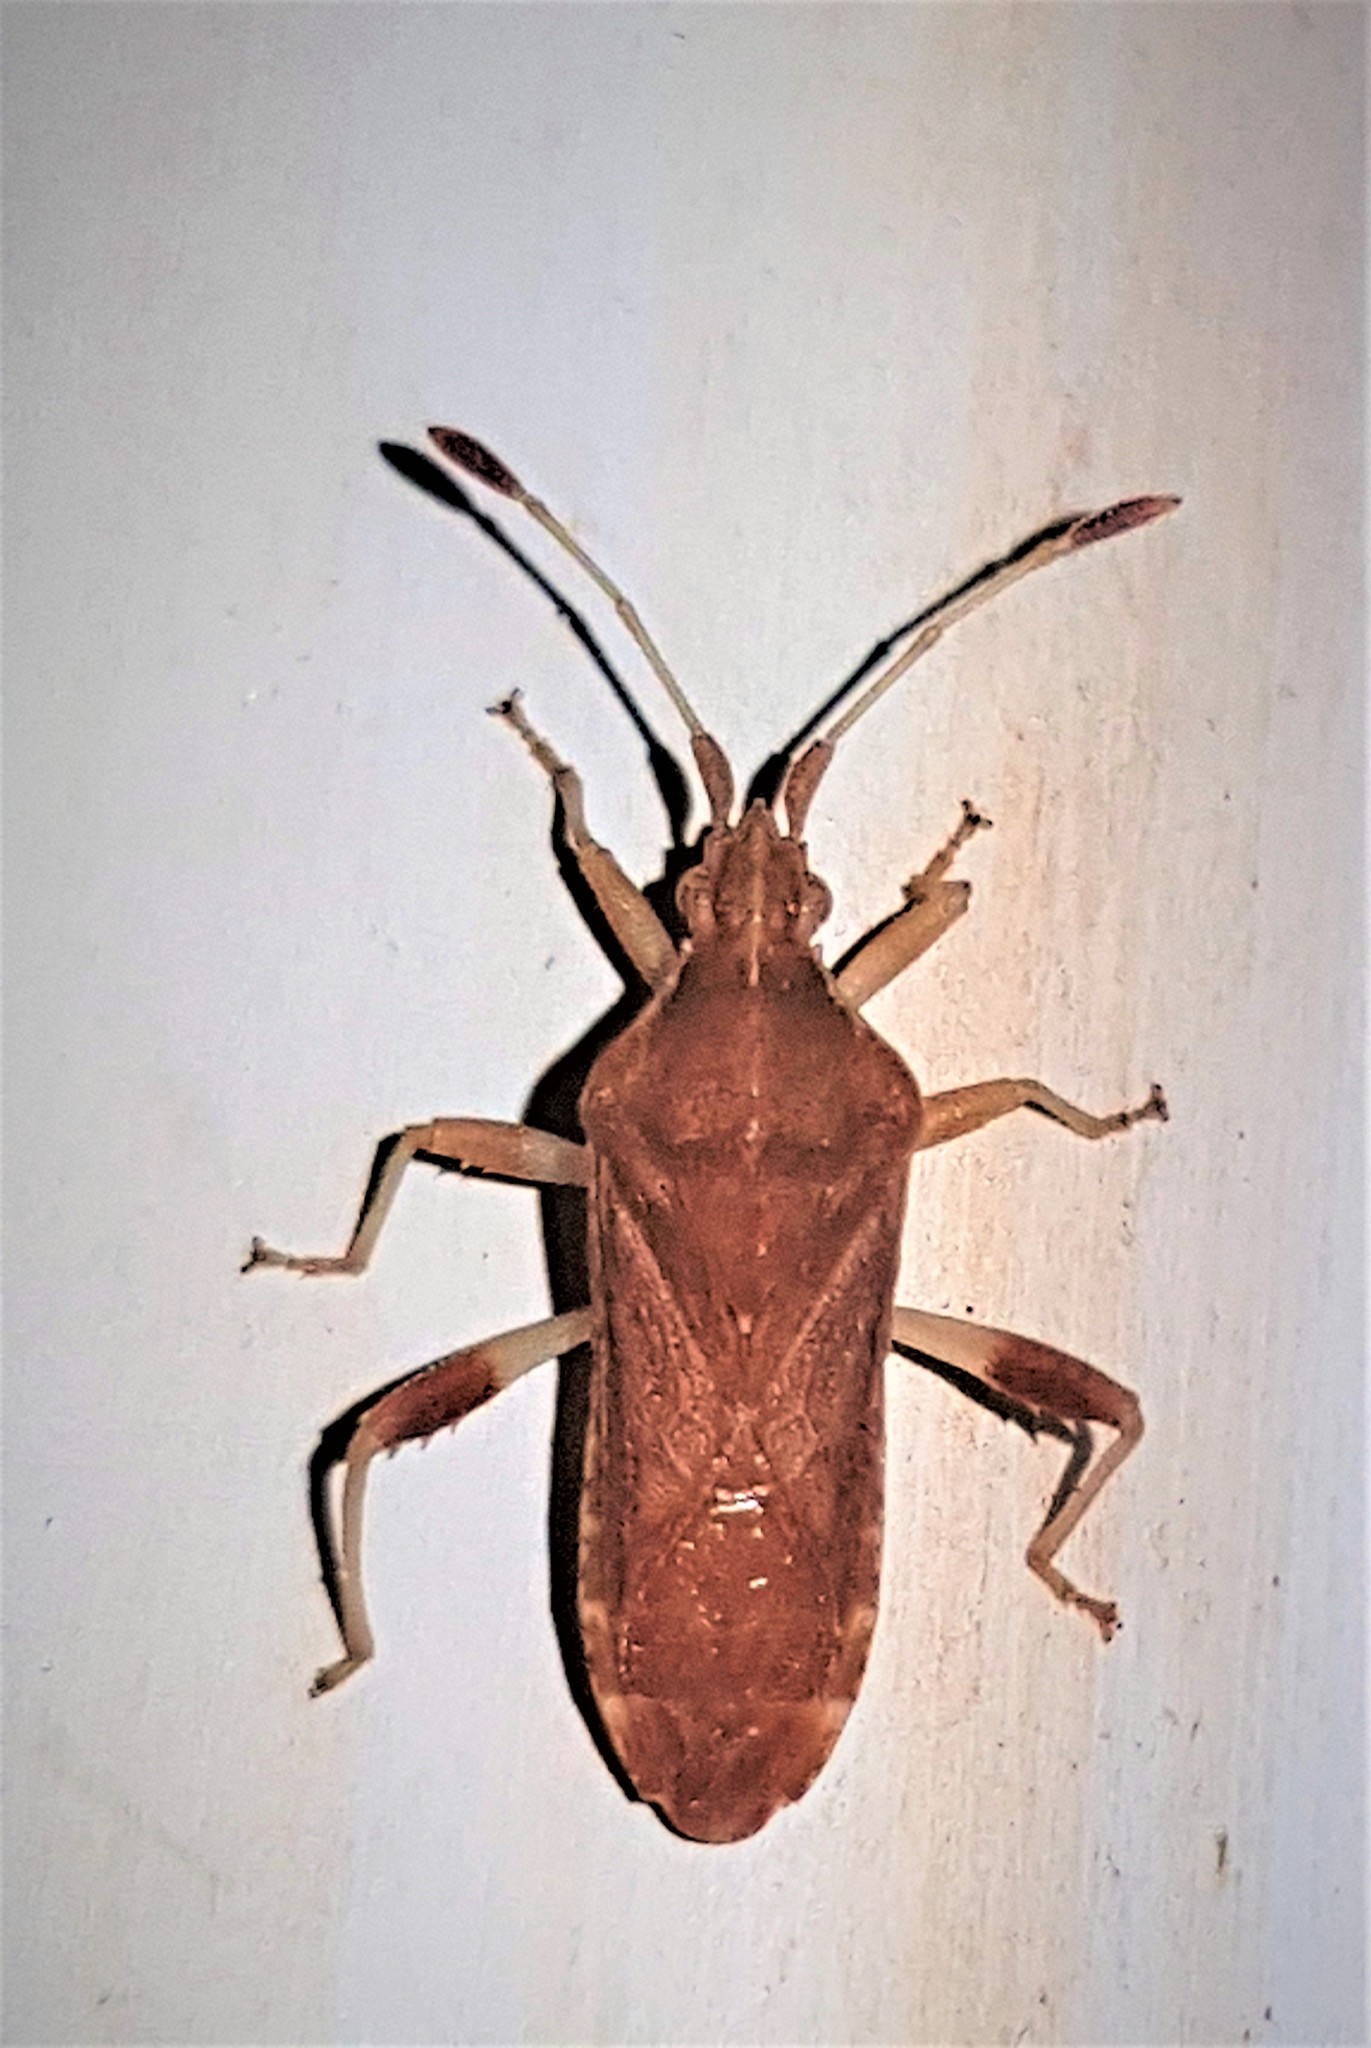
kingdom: Animalia
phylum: Arthropoda
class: Insecta
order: Hemiptera
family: Coreidae
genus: Dalmatomammurius
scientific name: Dalmatomammurius sobrius
